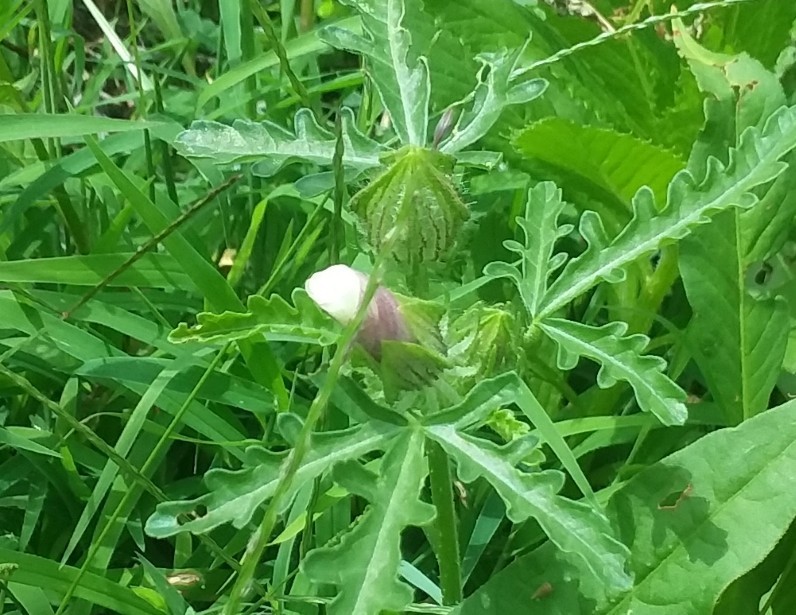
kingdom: Plantae
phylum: Tracheophyta
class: Magnoliopsida
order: Malvales
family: Malvaceae
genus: Hibiscus
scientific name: Hibiscus trionum
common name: Bladder ketmia
